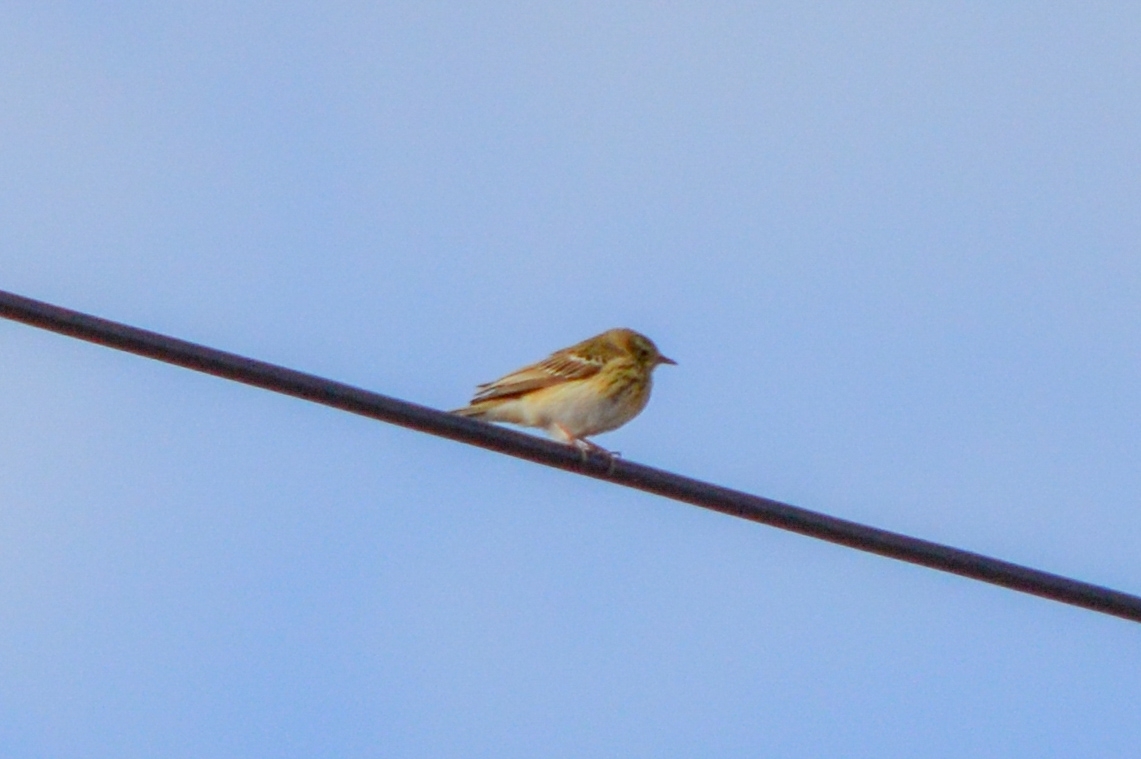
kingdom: Animalia
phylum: Chordata
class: Aves
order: Passeriformes
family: Motacillidae
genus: Anthus
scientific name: Anthus trivialis
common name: Tree pipit
